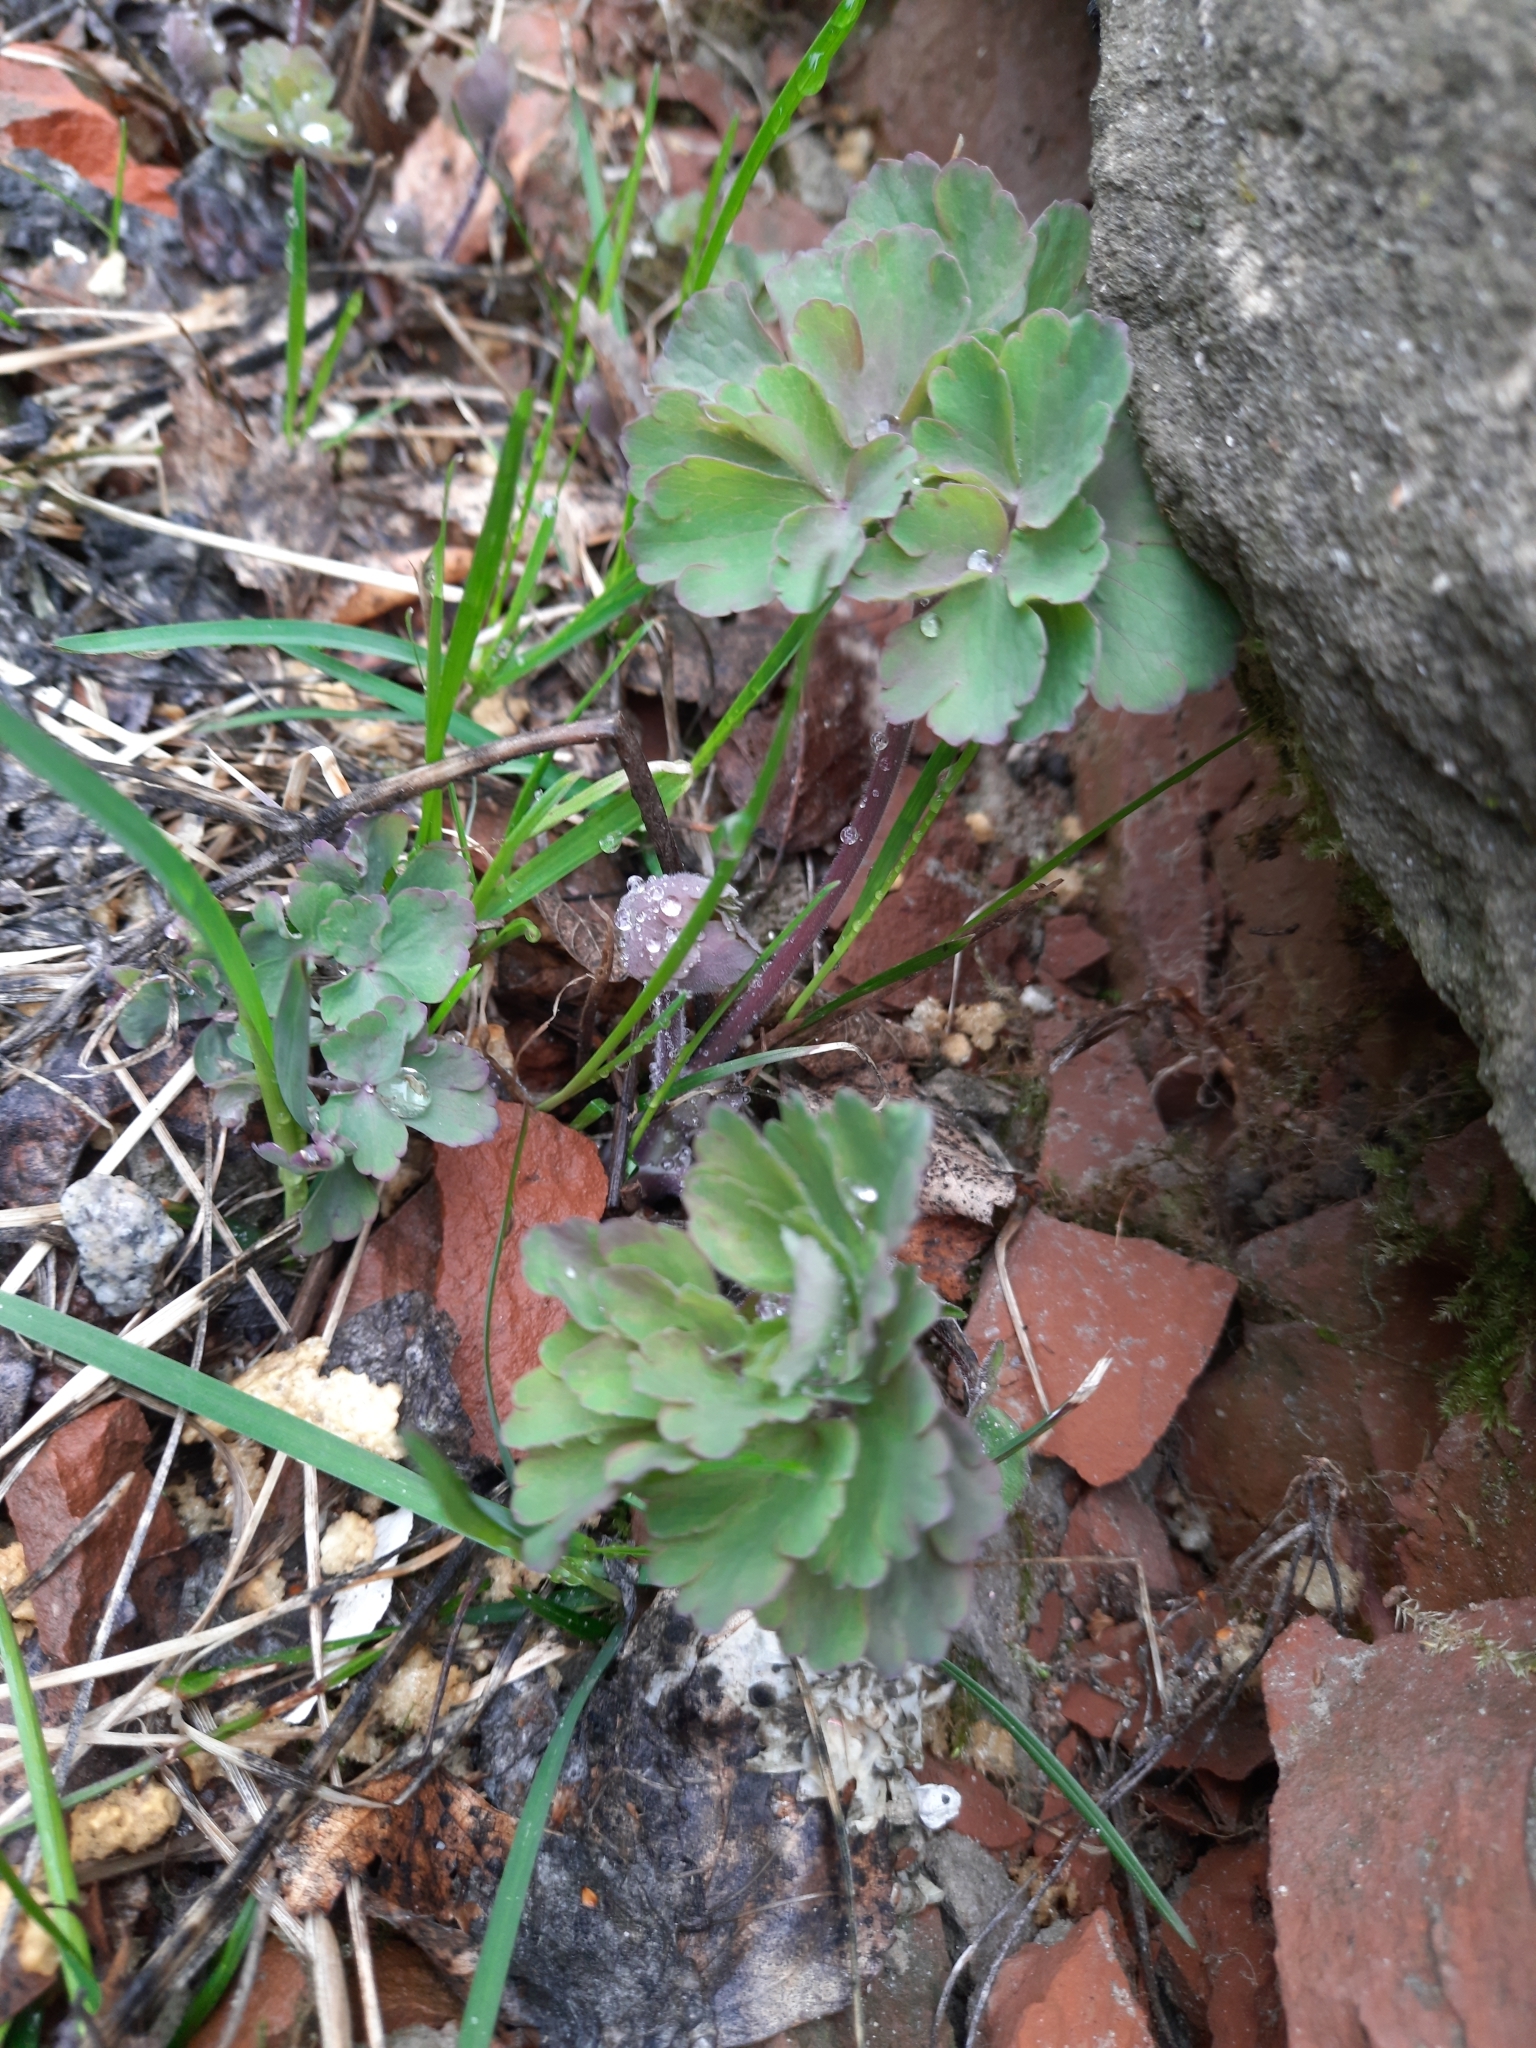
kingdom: Plantae
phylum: Tracheophyta
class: Magnoliopsida
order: Ranunculales
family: Ranunculaceae
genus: Aquilegia
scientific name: Aquilegia vulgaris
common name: Columbine
